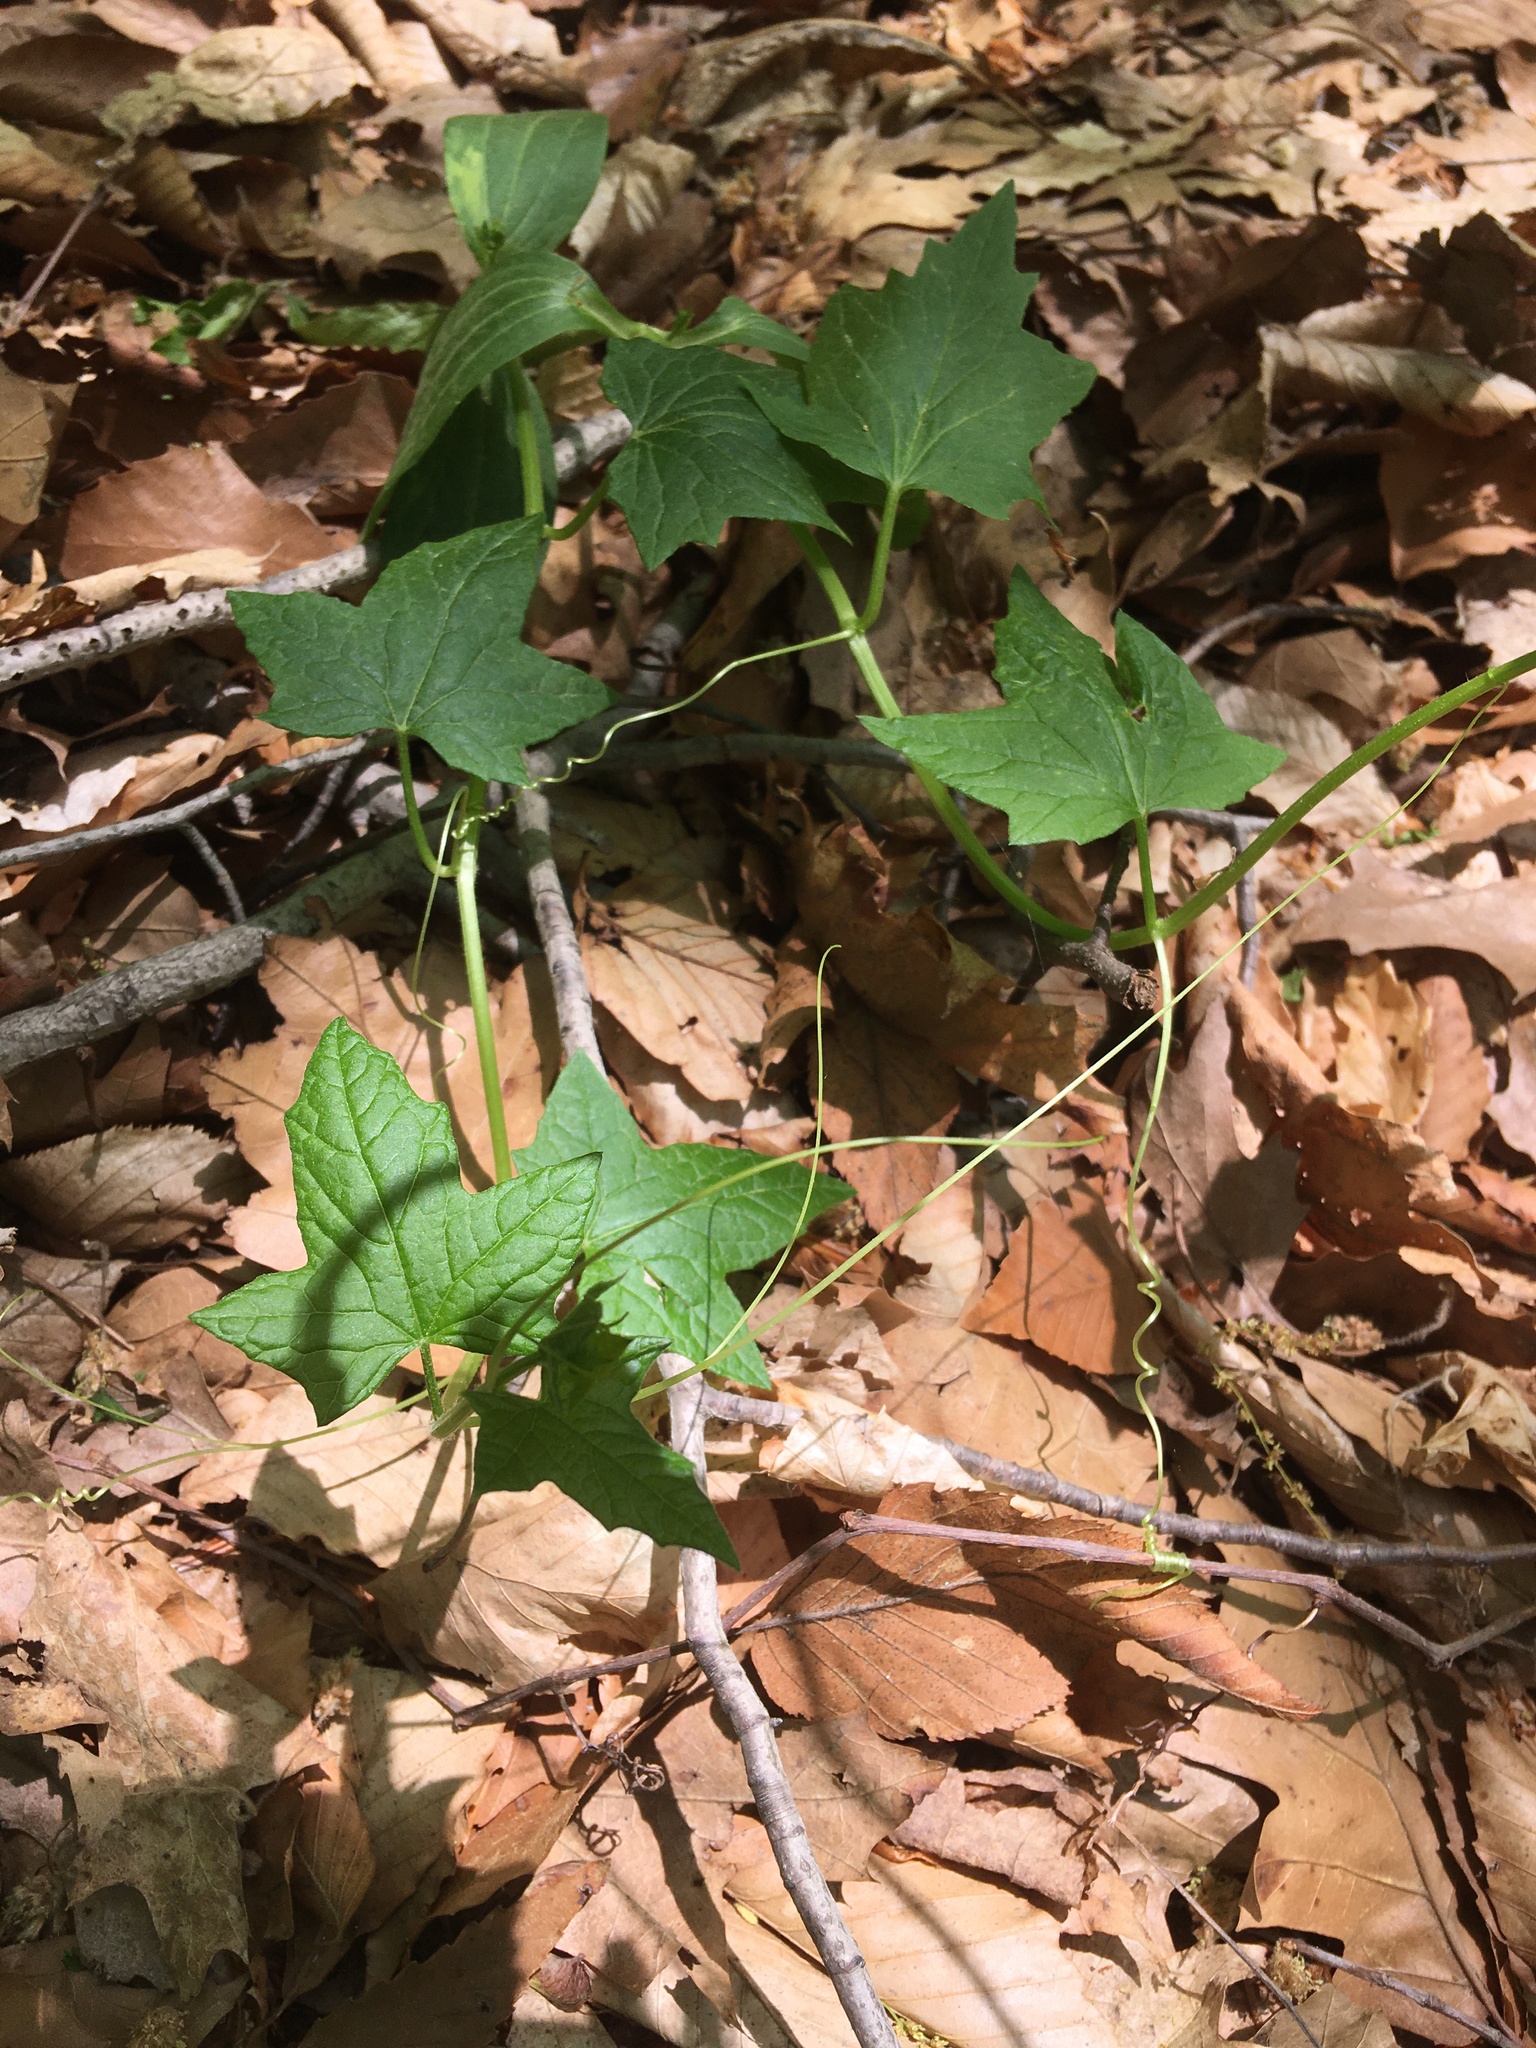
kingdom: Plantae
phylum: Tracheophyta
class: Magnoliopsida
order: Cucurbitales
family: Cucurbitaceae
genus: Echinocystis
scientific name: Echinocystis lobata
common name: Wild cucumber
